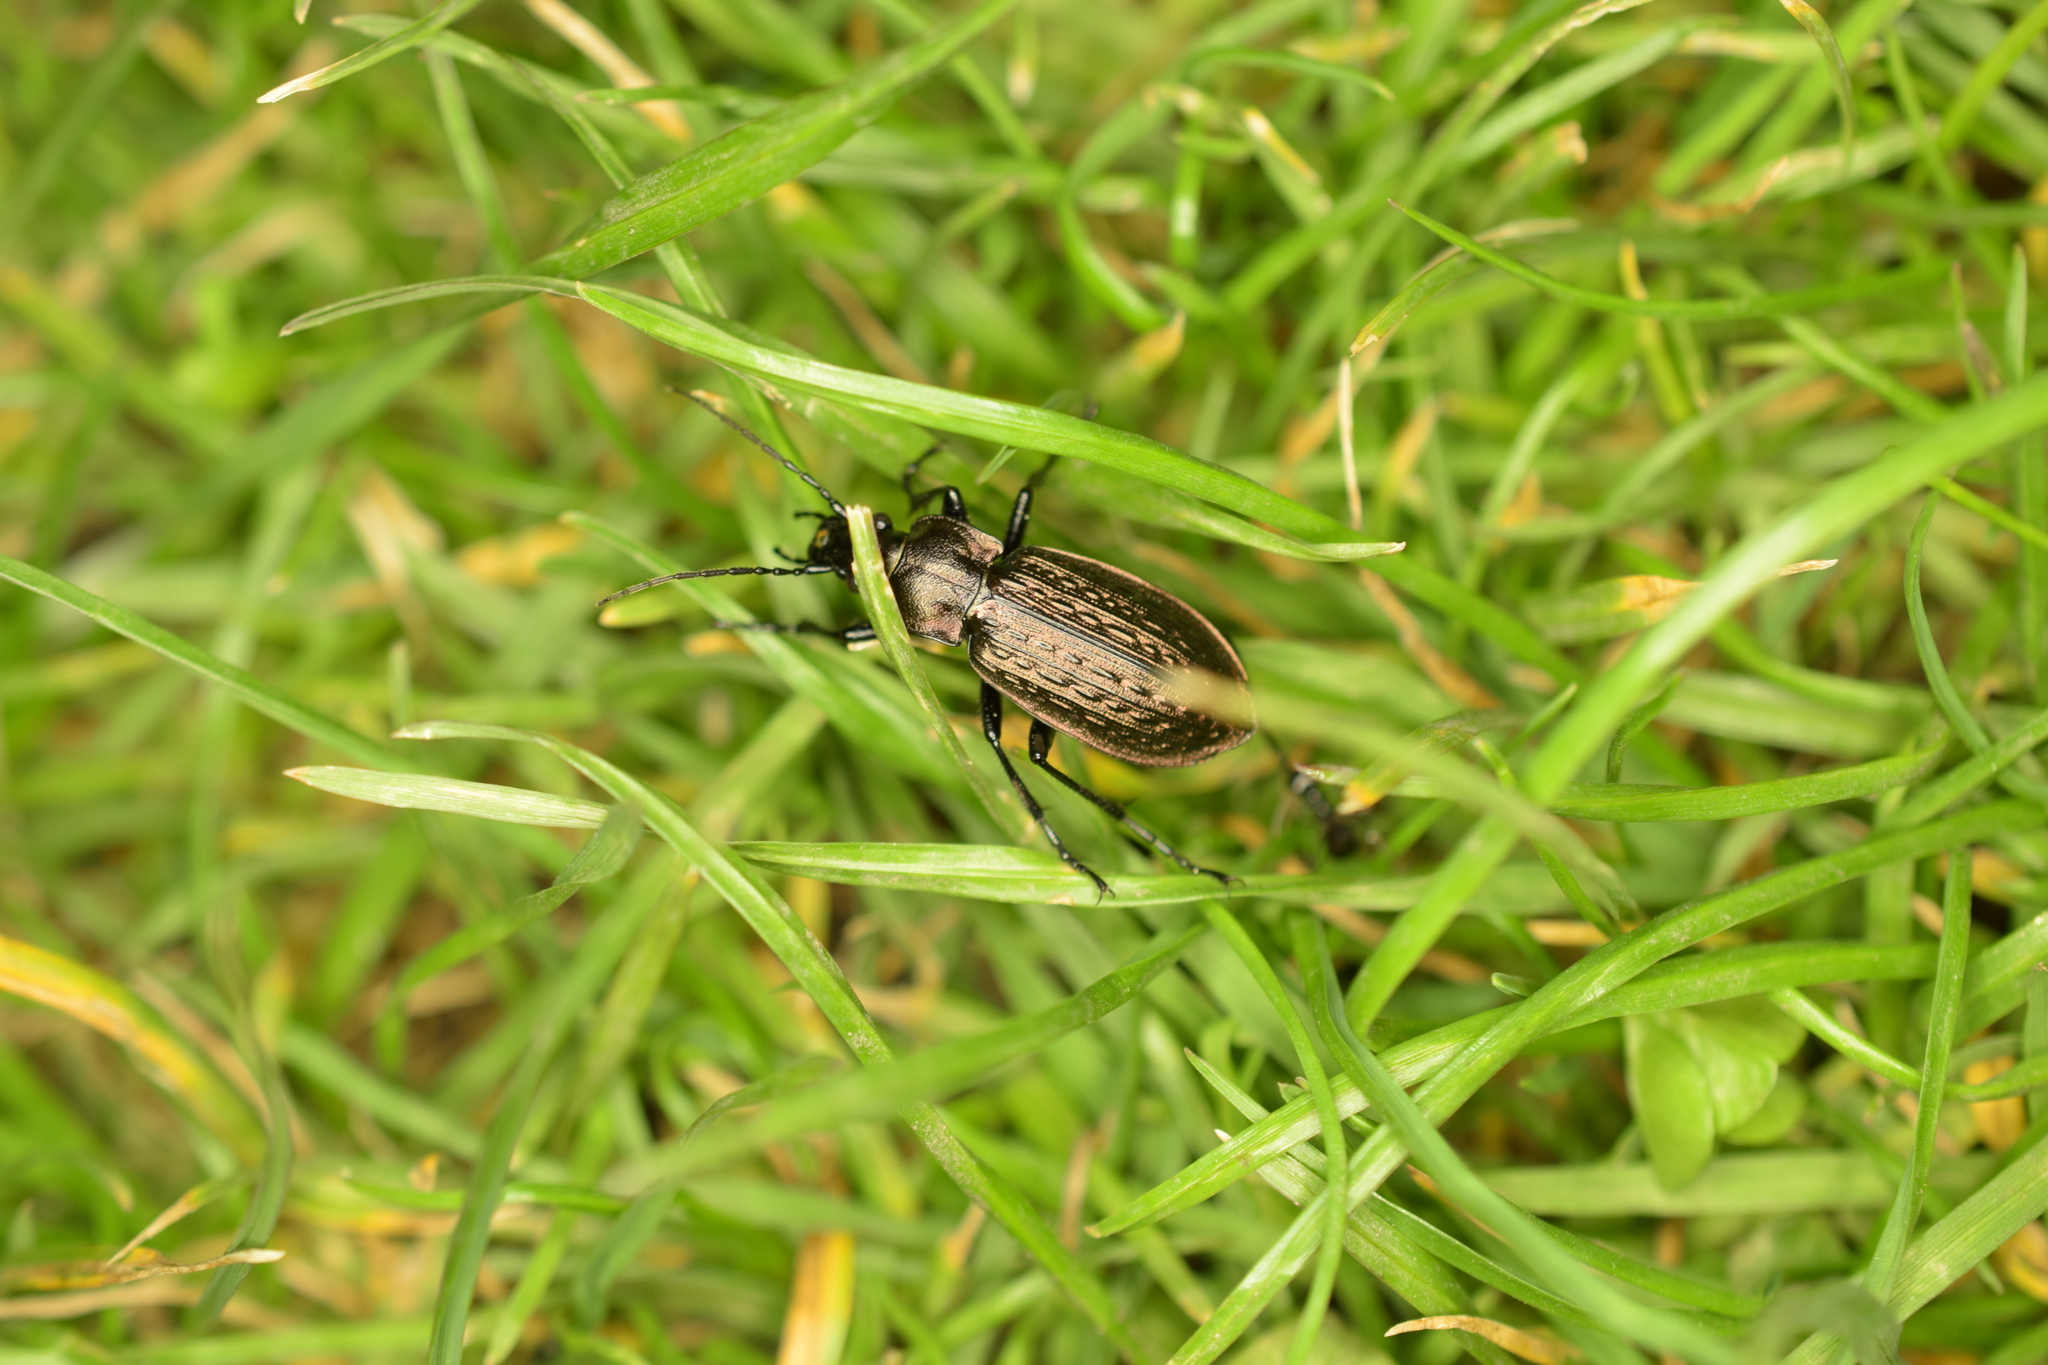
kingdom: Animalia
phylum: Arthropoda
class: Insecta
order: Coleoptera
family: Carabidae
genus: Carabus
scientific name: Carabus granulatus
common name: Granulate ground beetle
